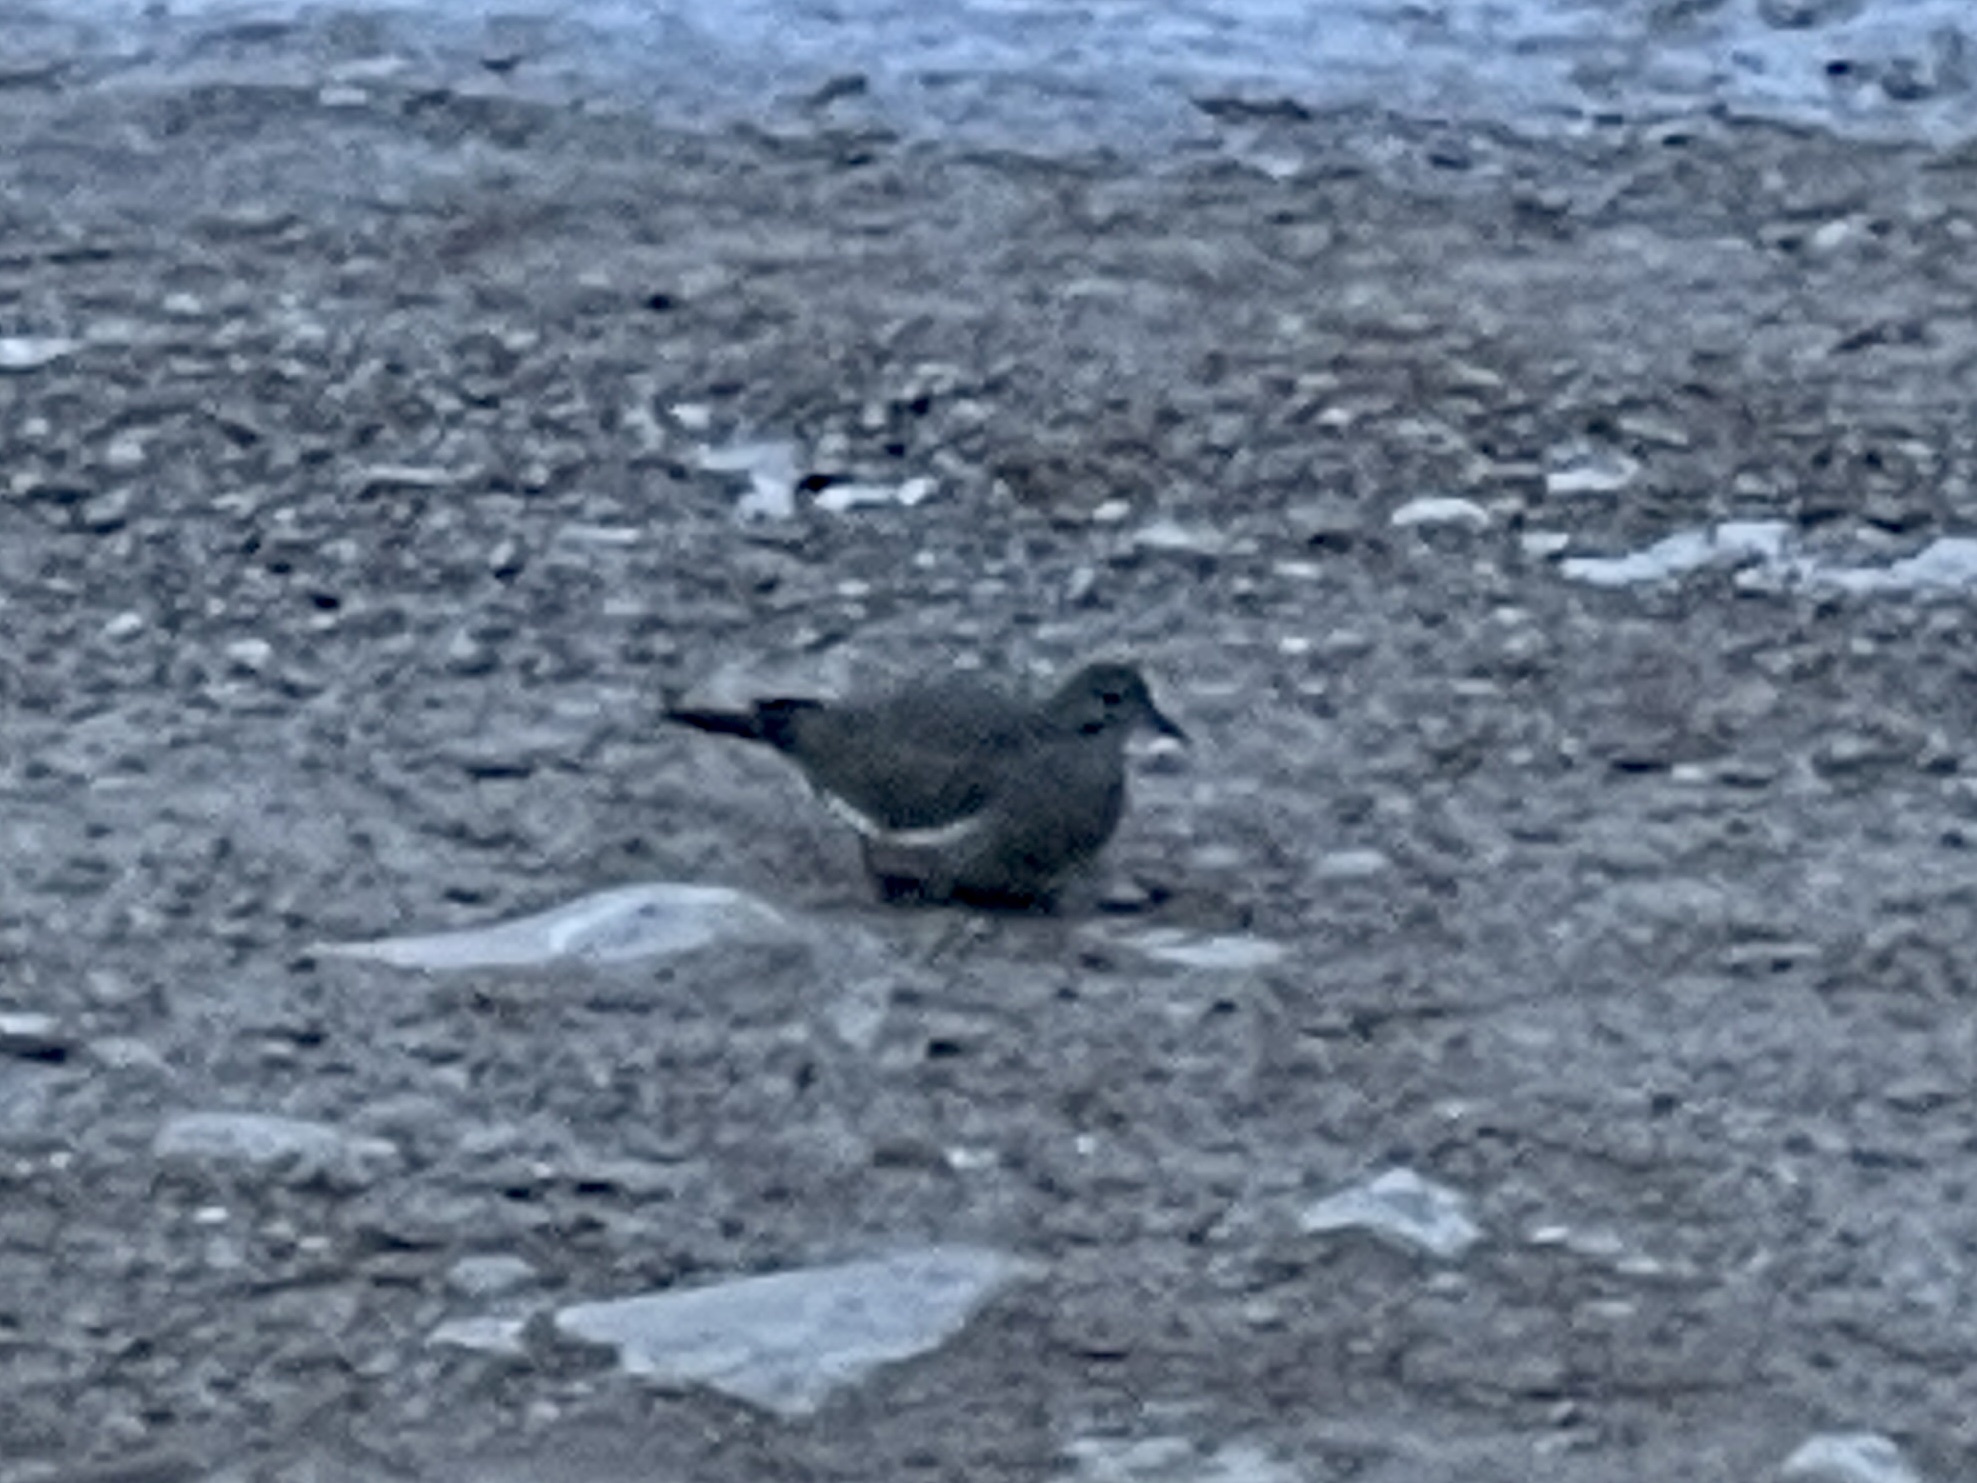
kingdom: Animalia
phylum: Chordata
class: Aves
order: Columbiformes
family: Columbidae
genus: Zenaida
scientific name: Zenaida asiatica
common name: White-winged dove
